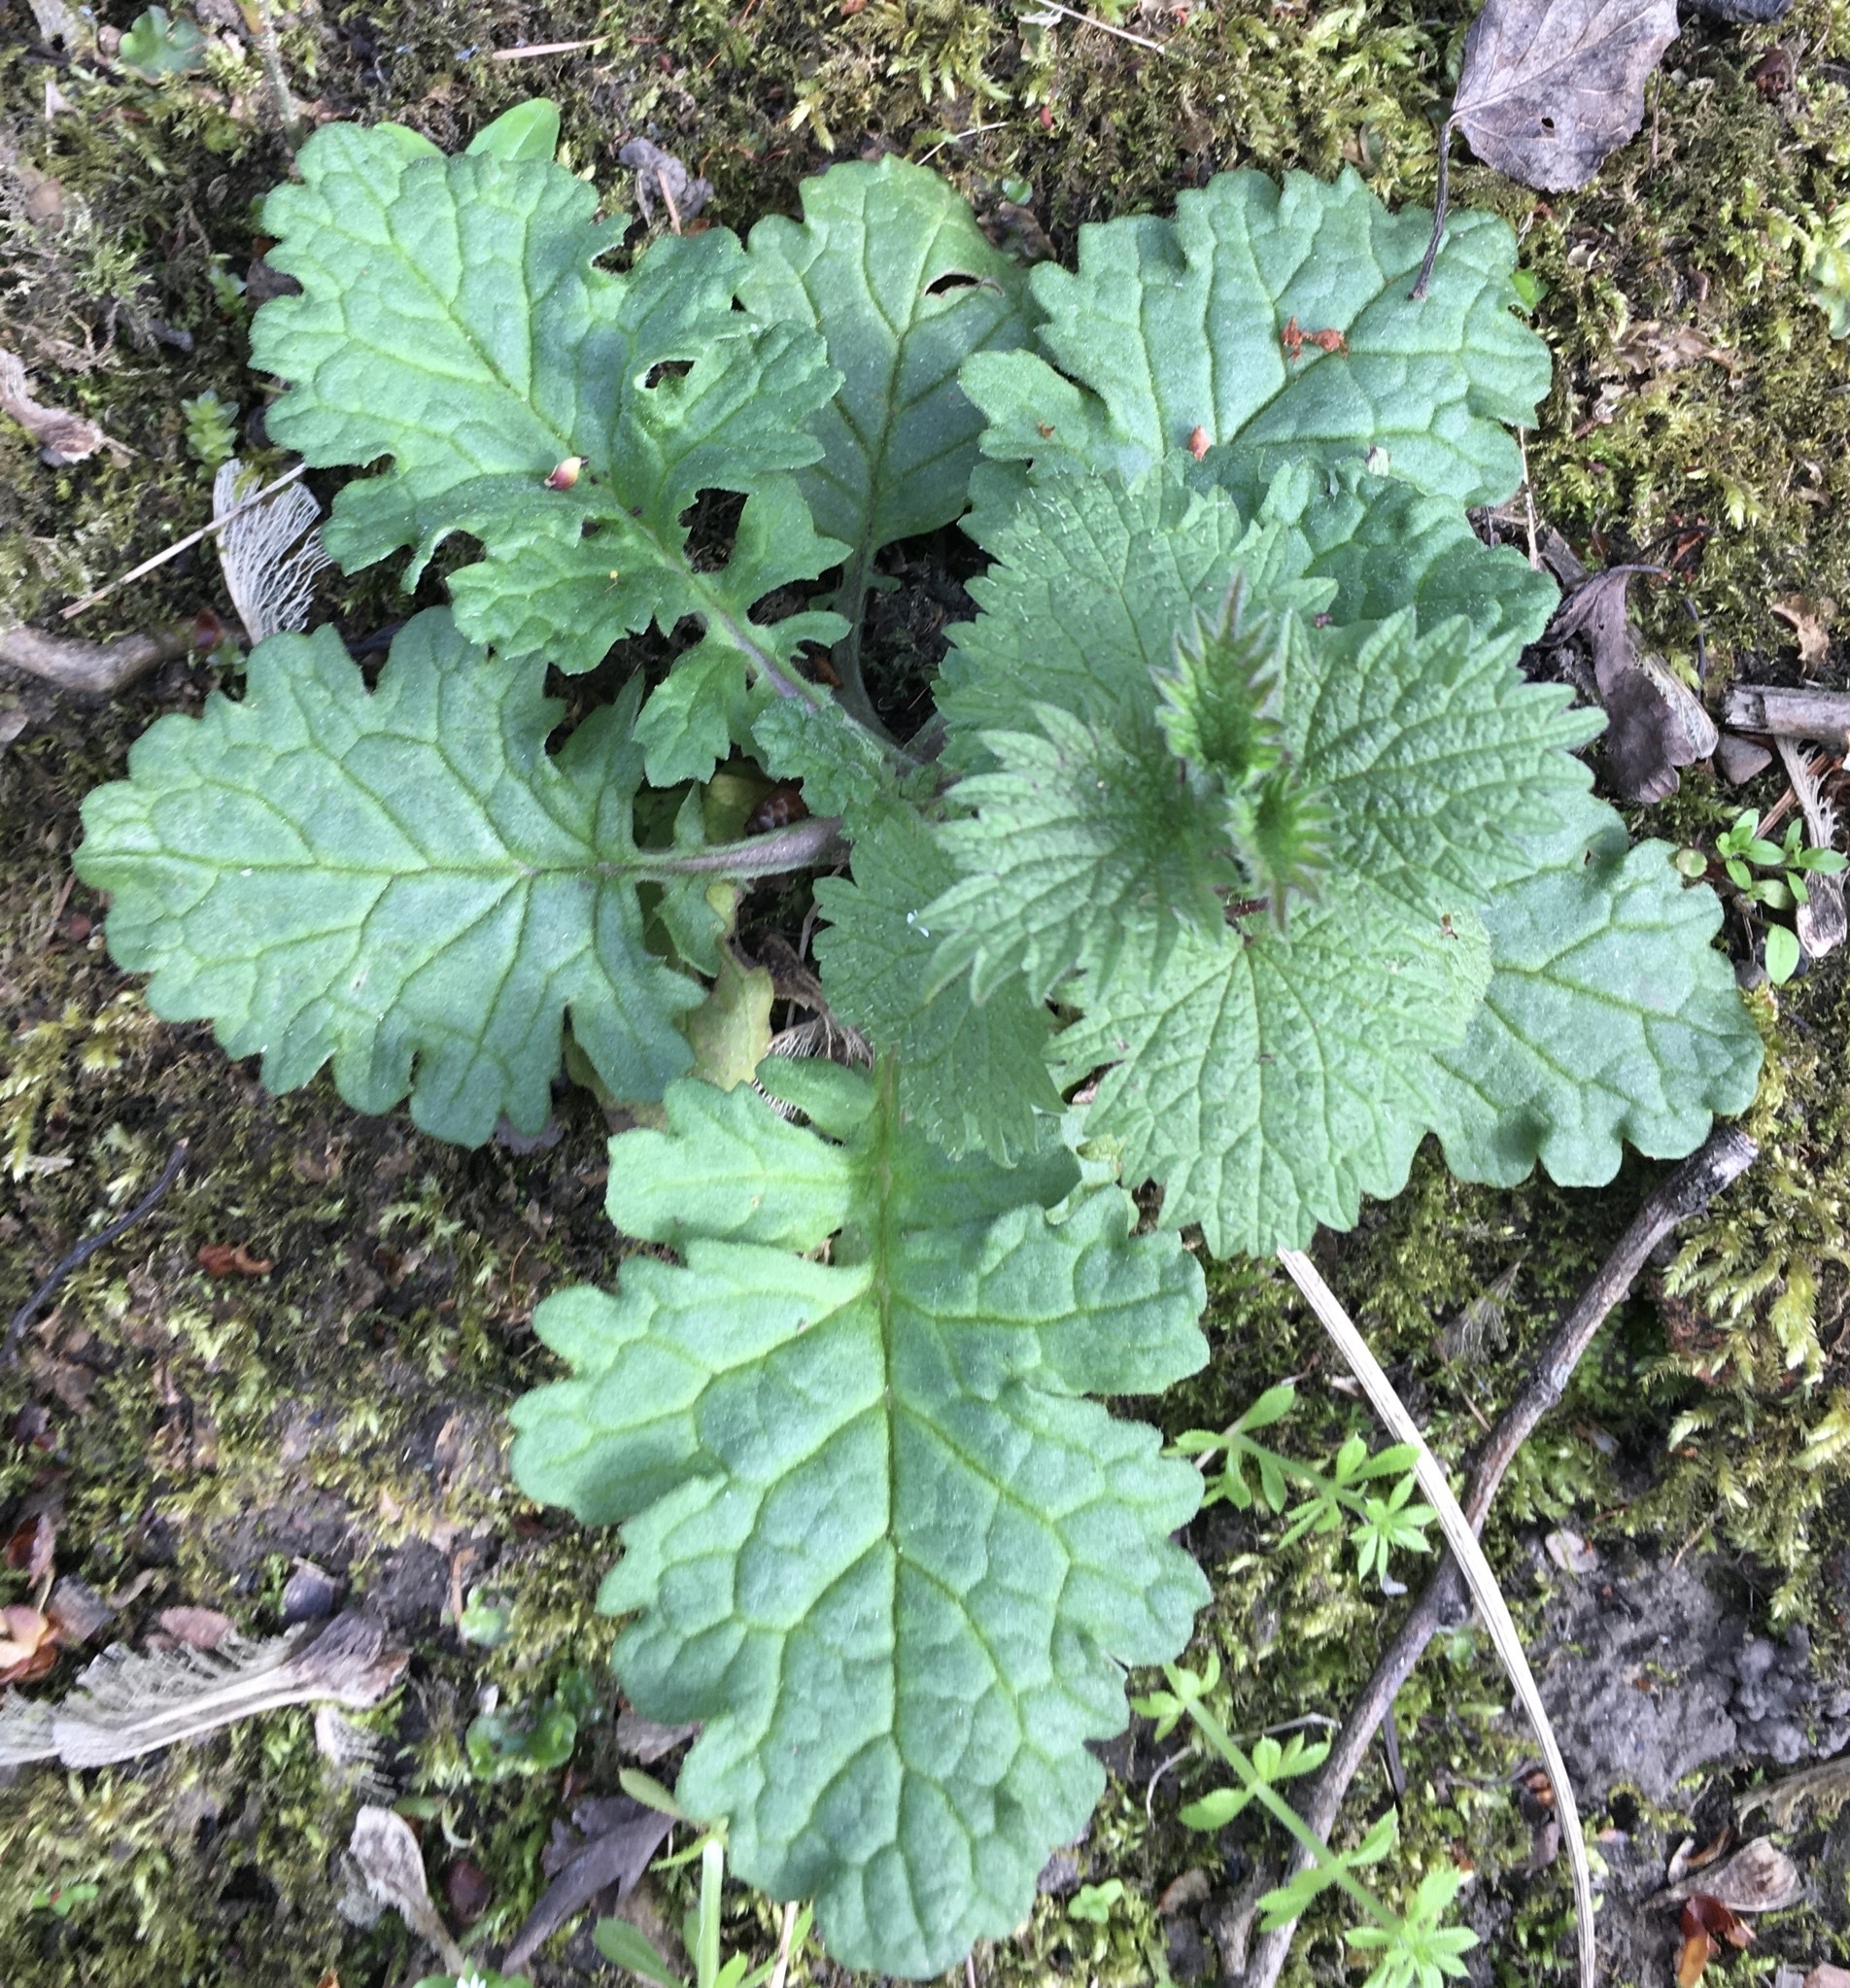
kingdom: Plantae
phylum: Tracheophyta
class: Magnoliopsida
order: Asterales
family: Asteraceae
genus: Jacobaea
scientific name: Jacobaea vulgaris
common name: Stinking willie
